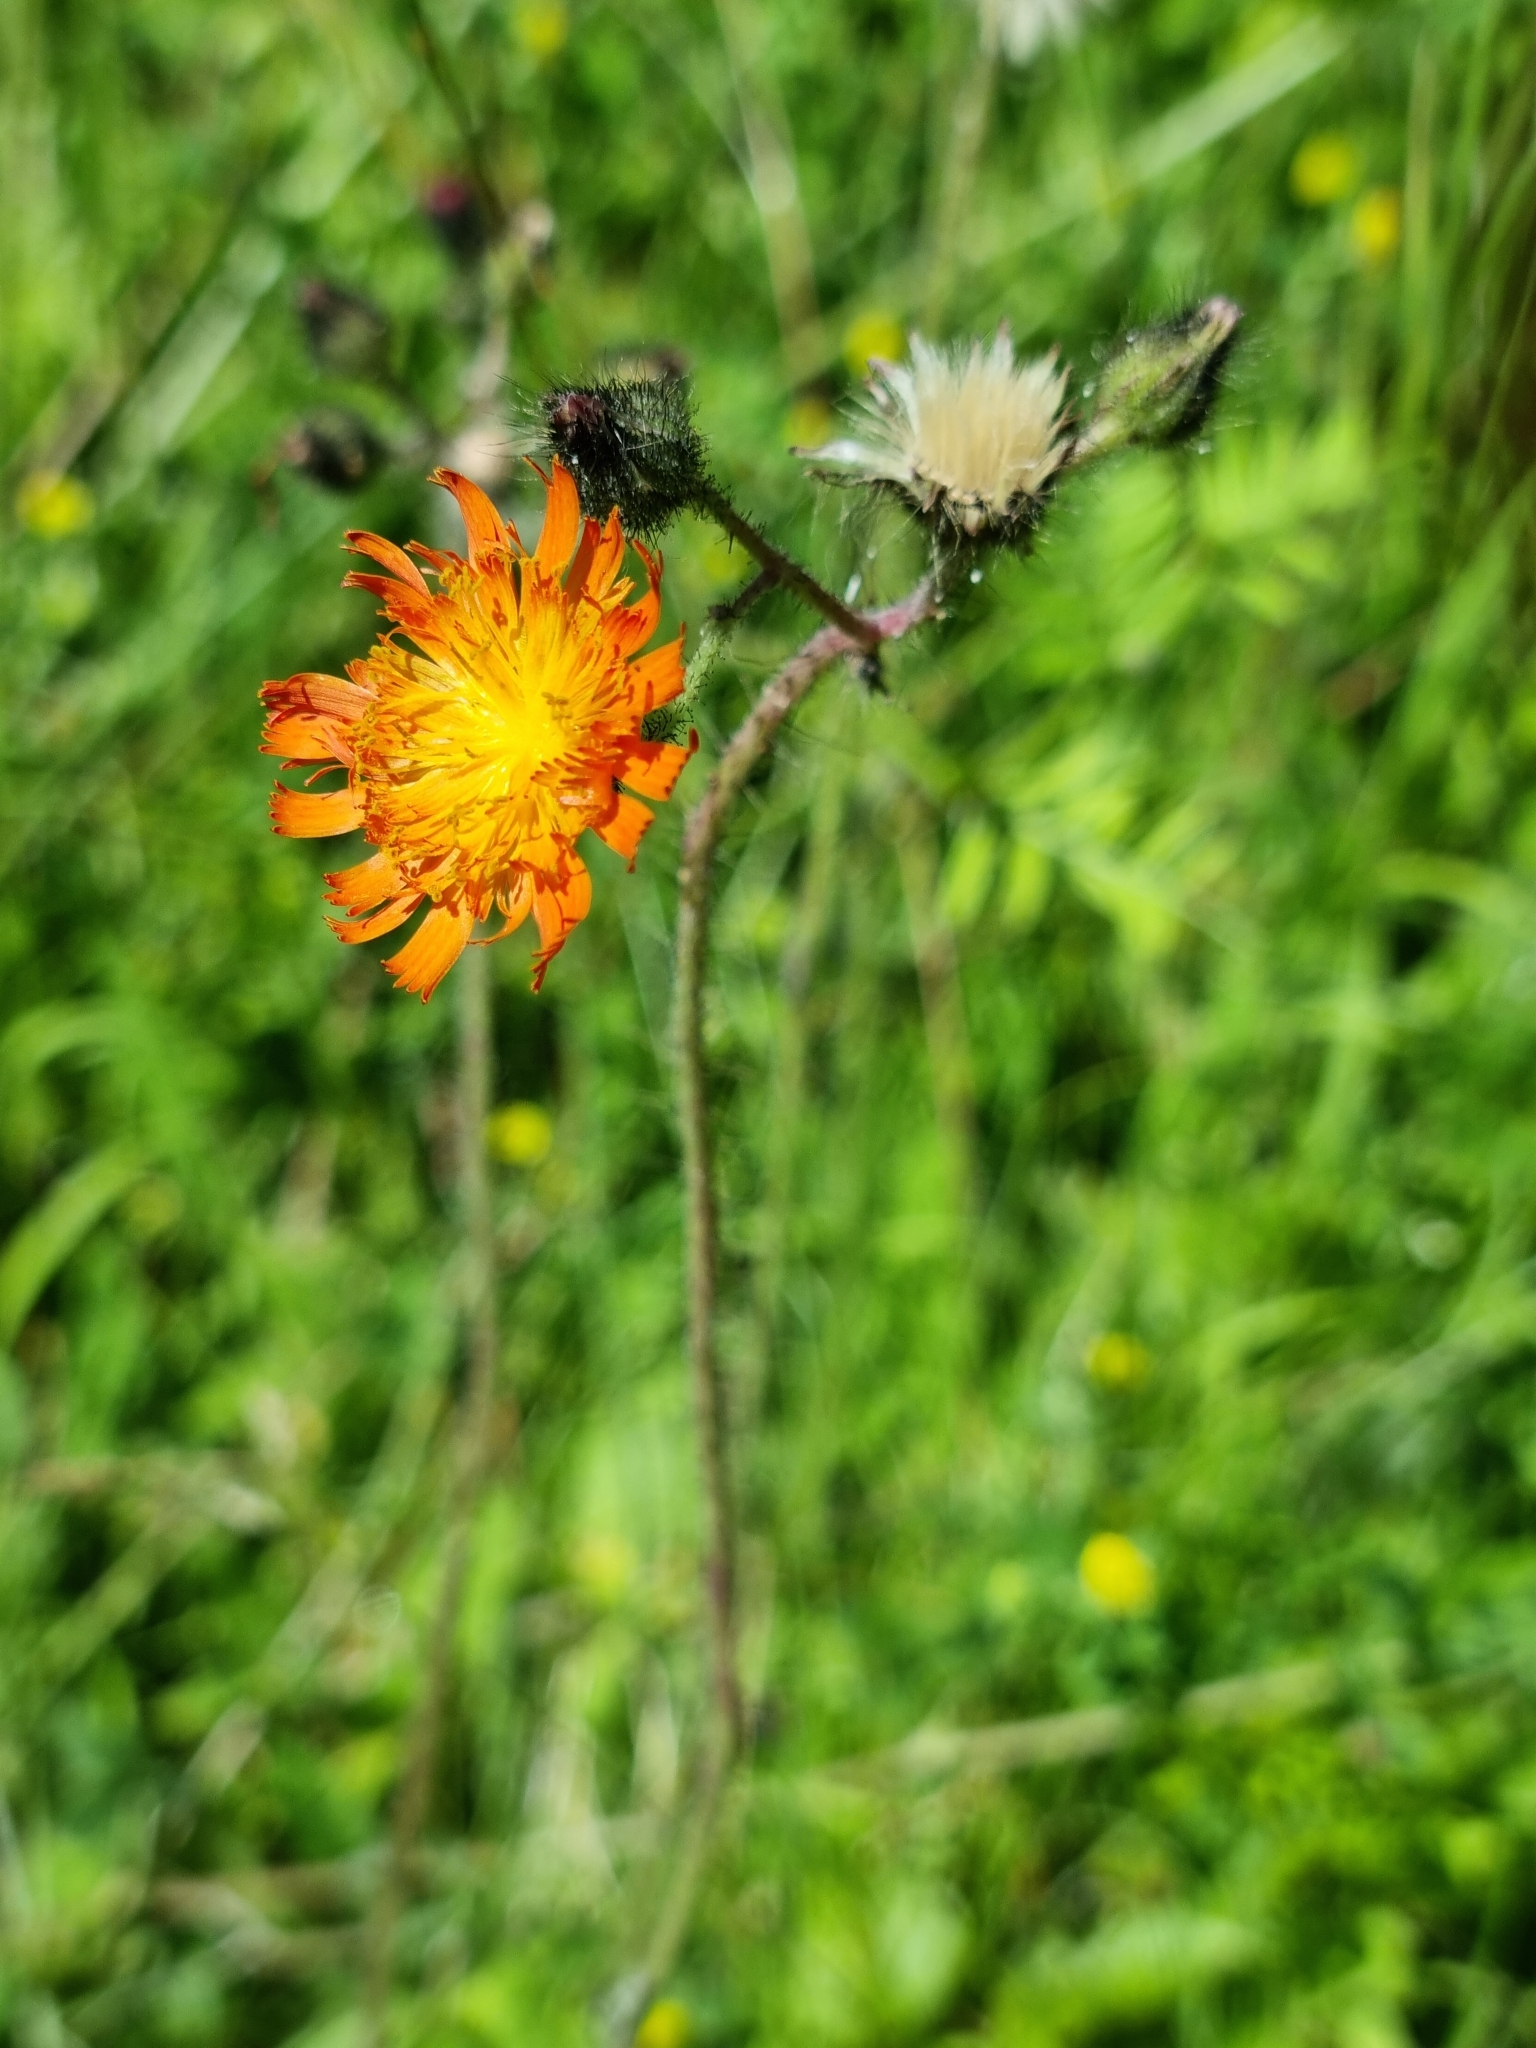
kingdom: Plantae
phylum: Tracheophyta
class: Magnoliopsida
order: Asterales
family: Asteraceae
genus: Pilosella
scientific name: Pilosella aurantiaca
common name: Fox-and-cubs
